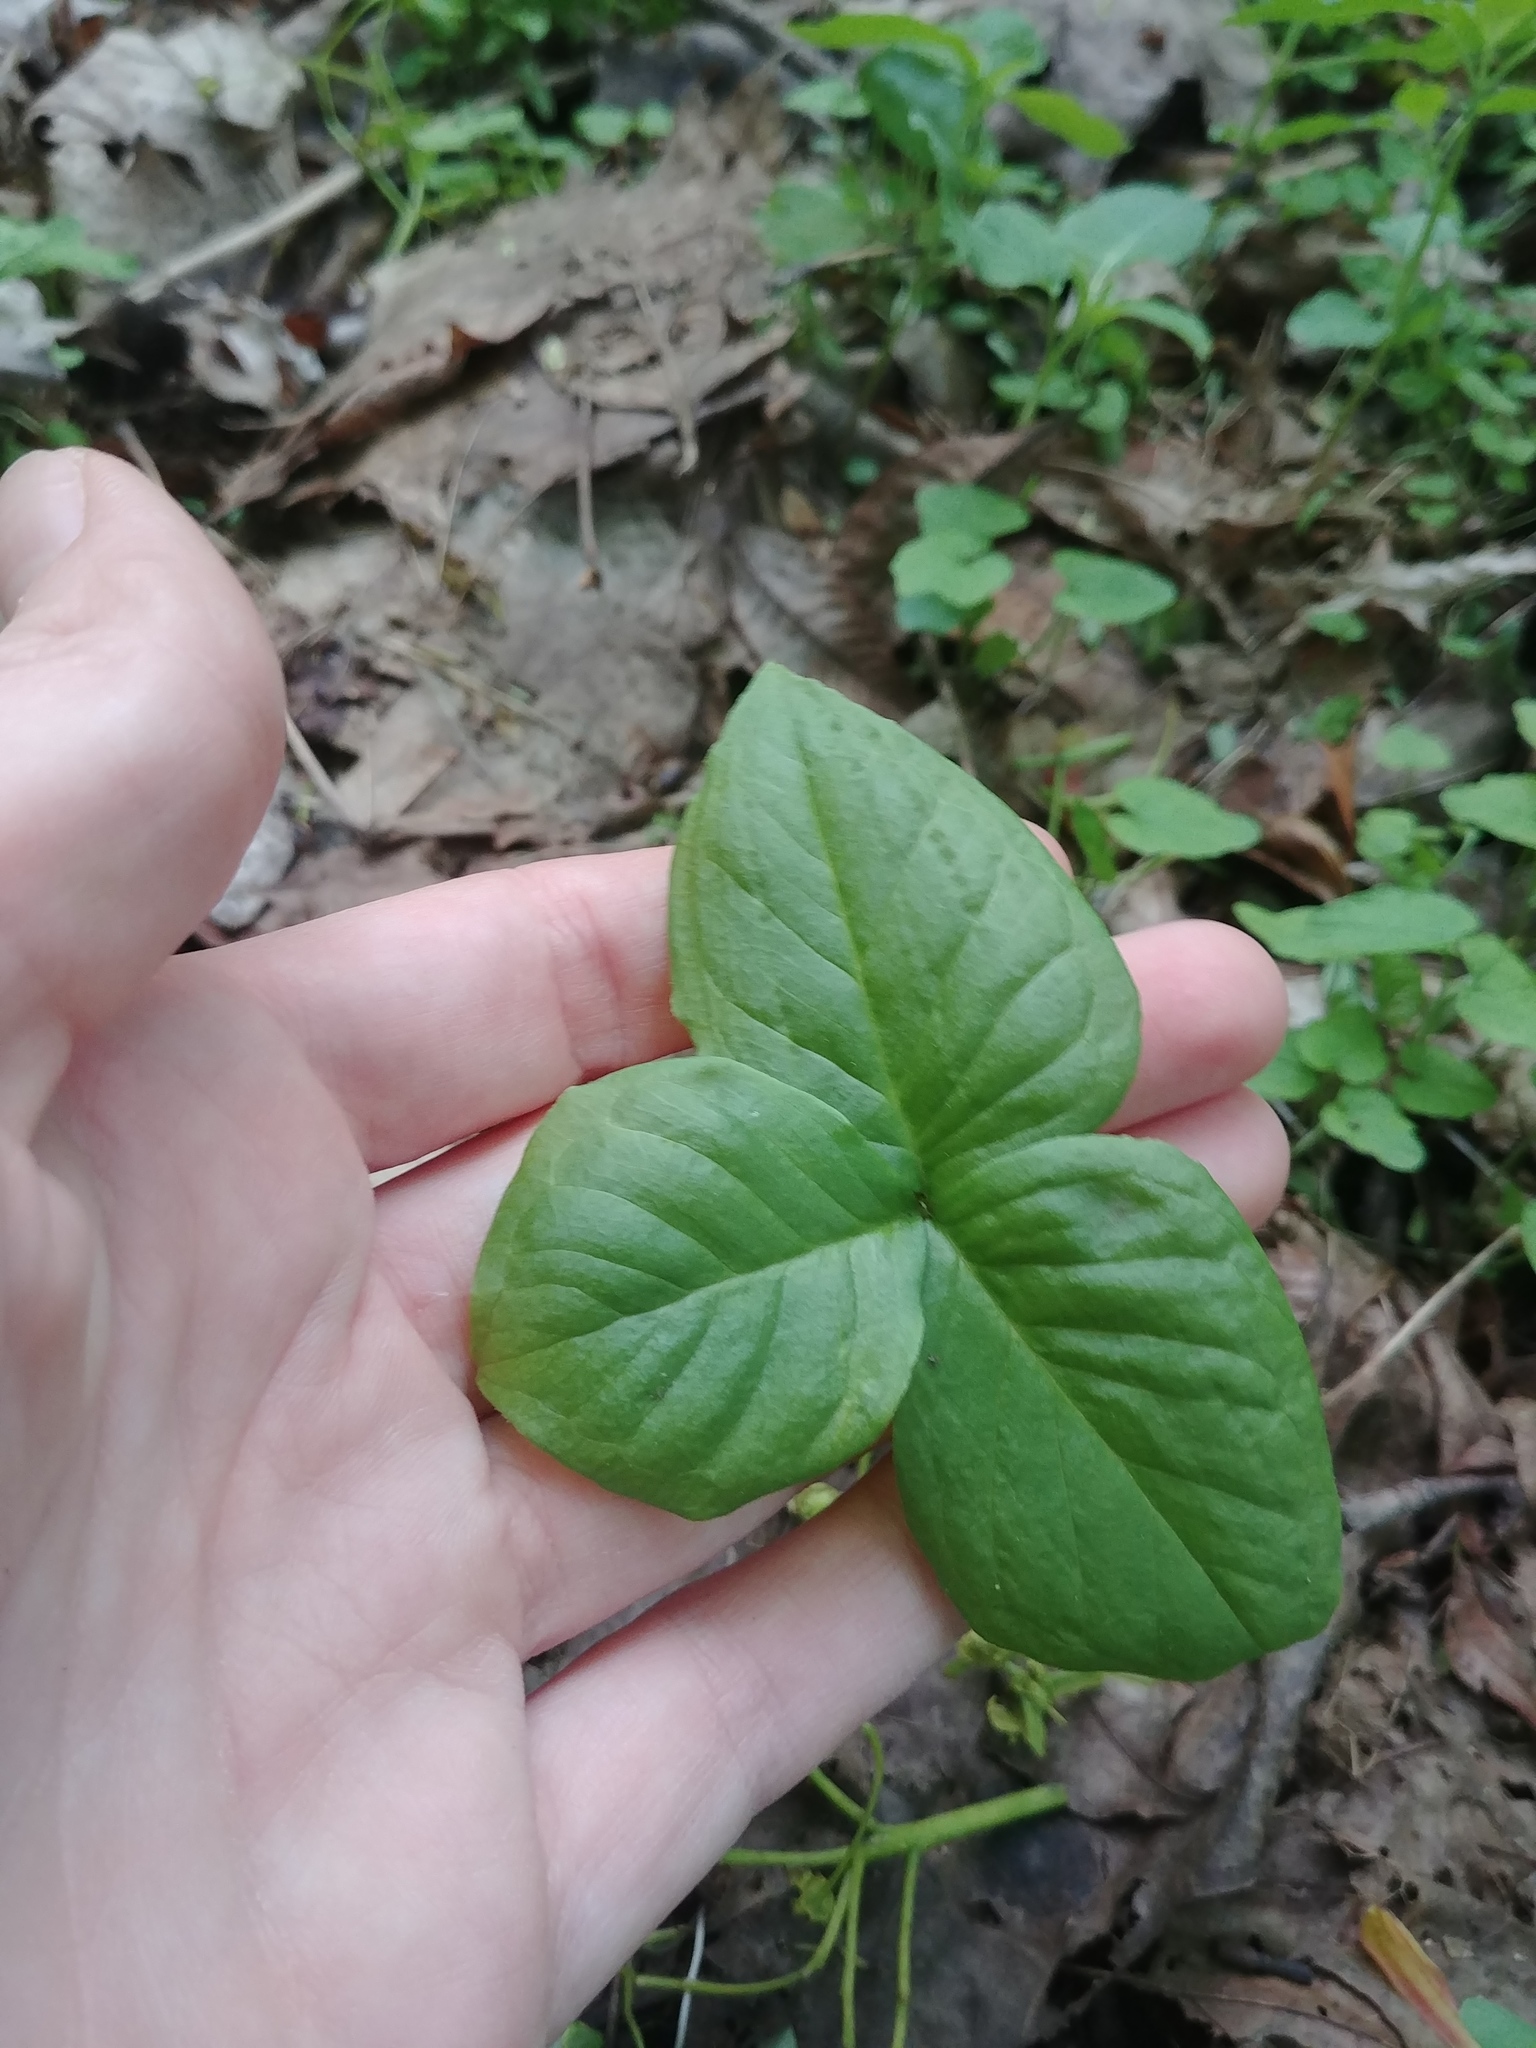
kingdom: Plantae
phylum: Tracheophyta
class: Liliopsida
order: Alismatales
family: Araceae
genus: Arisaema
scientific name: Arisaema triphyllum
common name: Jack-in-the-pulpit
